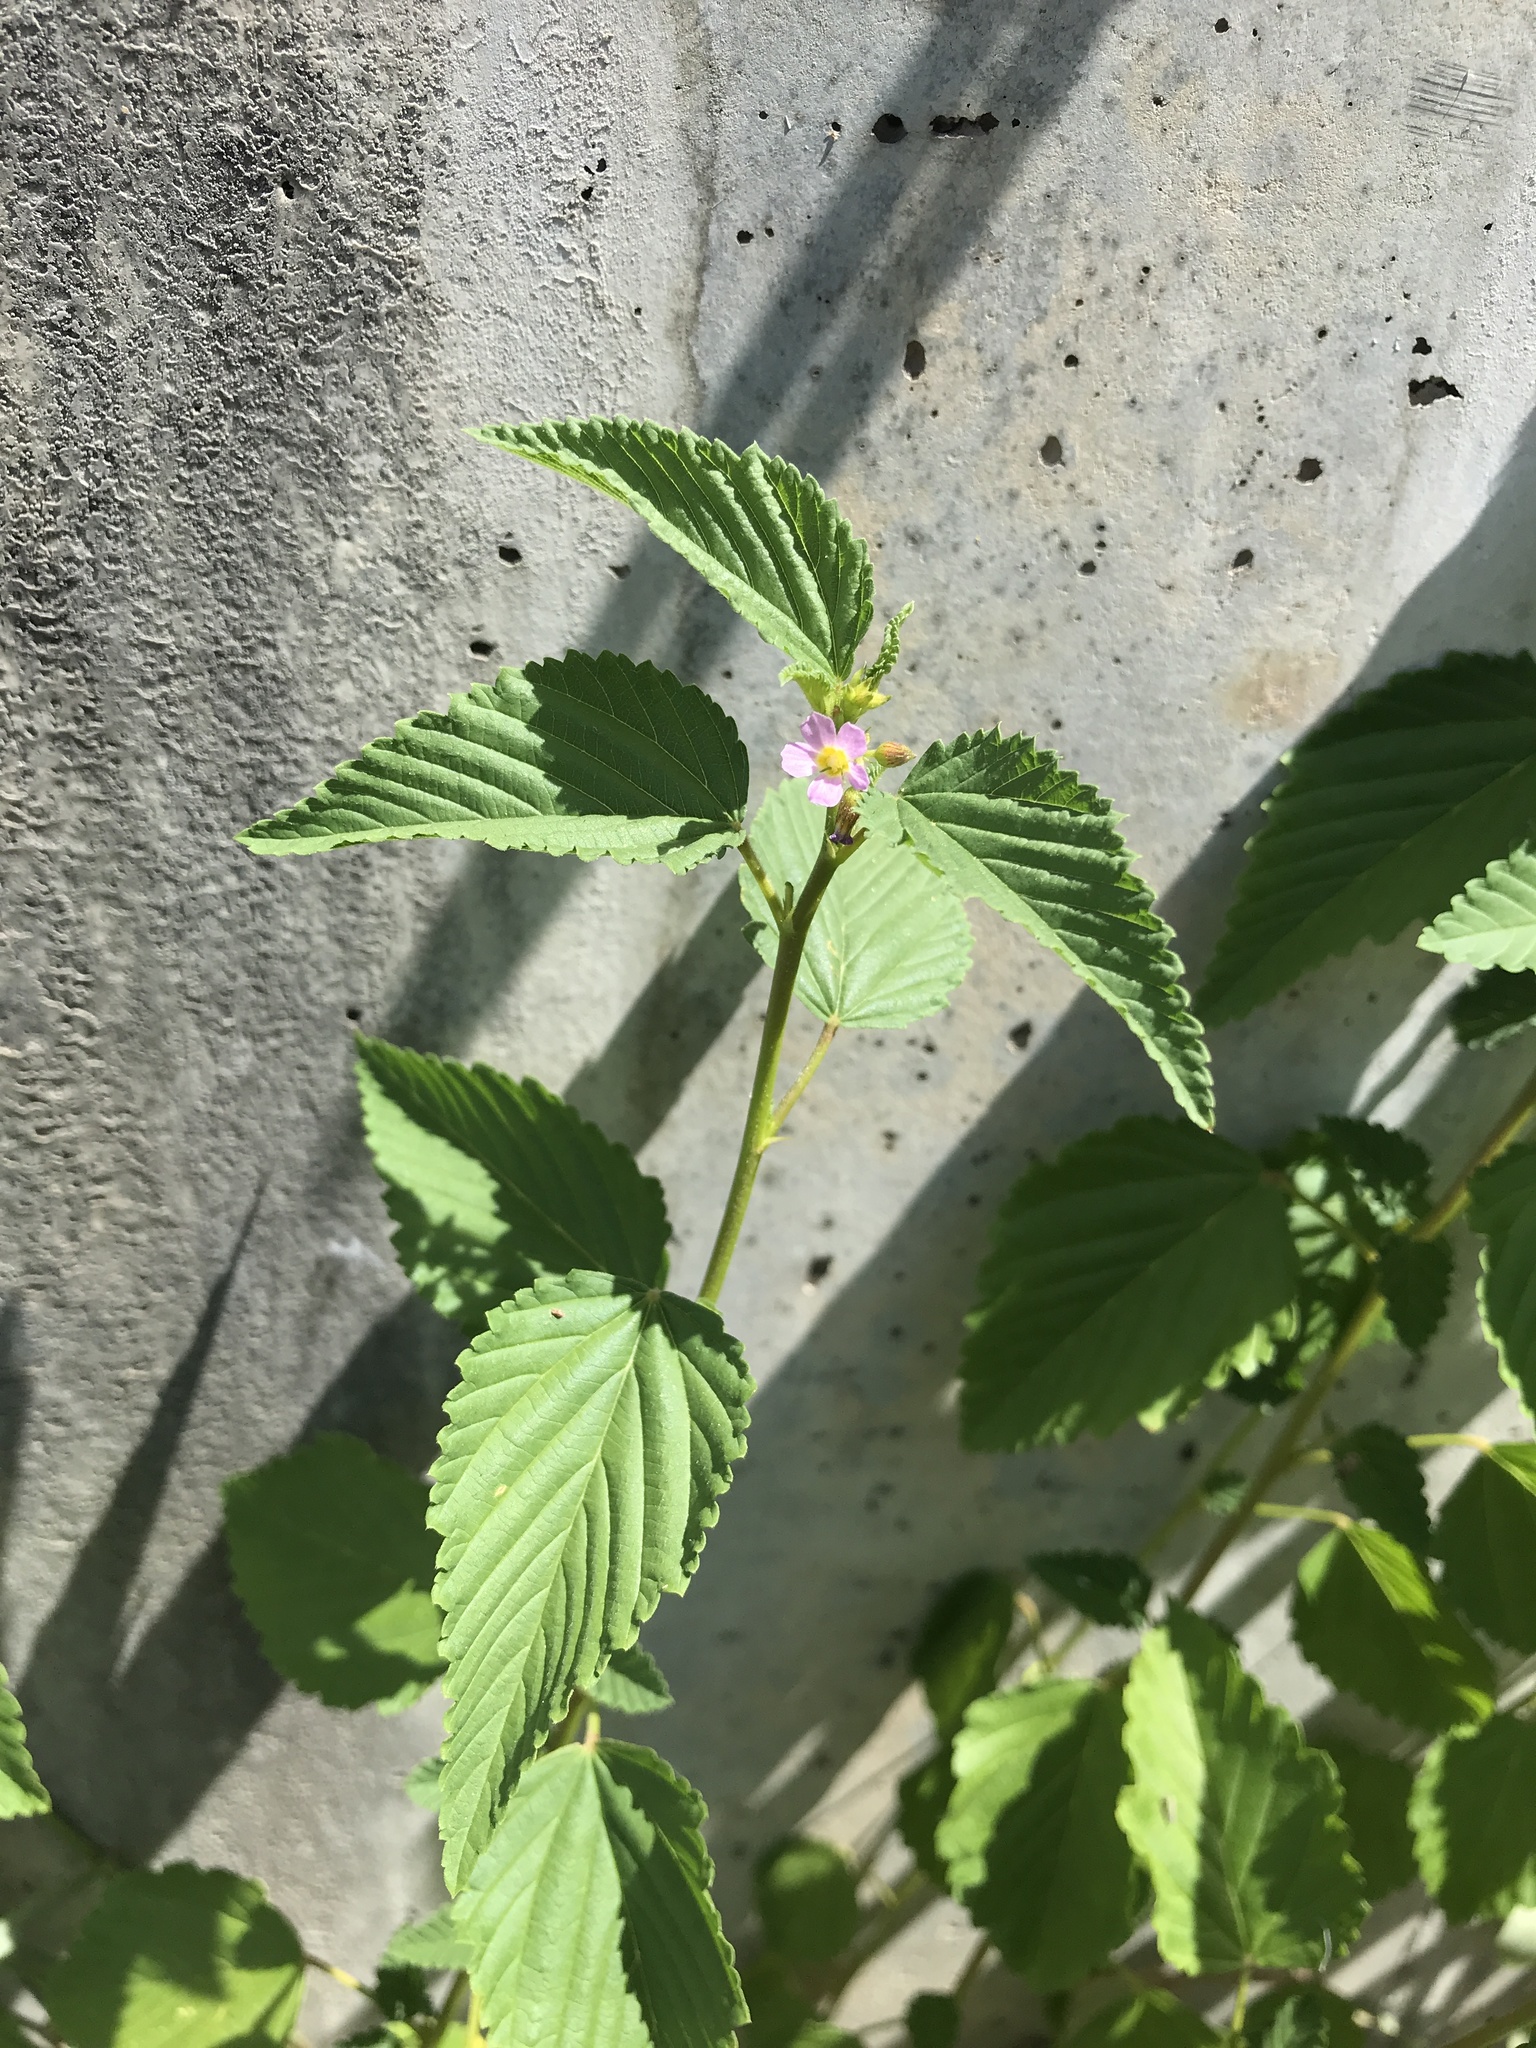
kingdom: Plantae
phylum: Tracheophyta
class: Magnoliopsida
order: Malvales
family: Malvaceae
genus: Melochia
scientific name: Melochia pyramidata
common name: Pyramidflower
